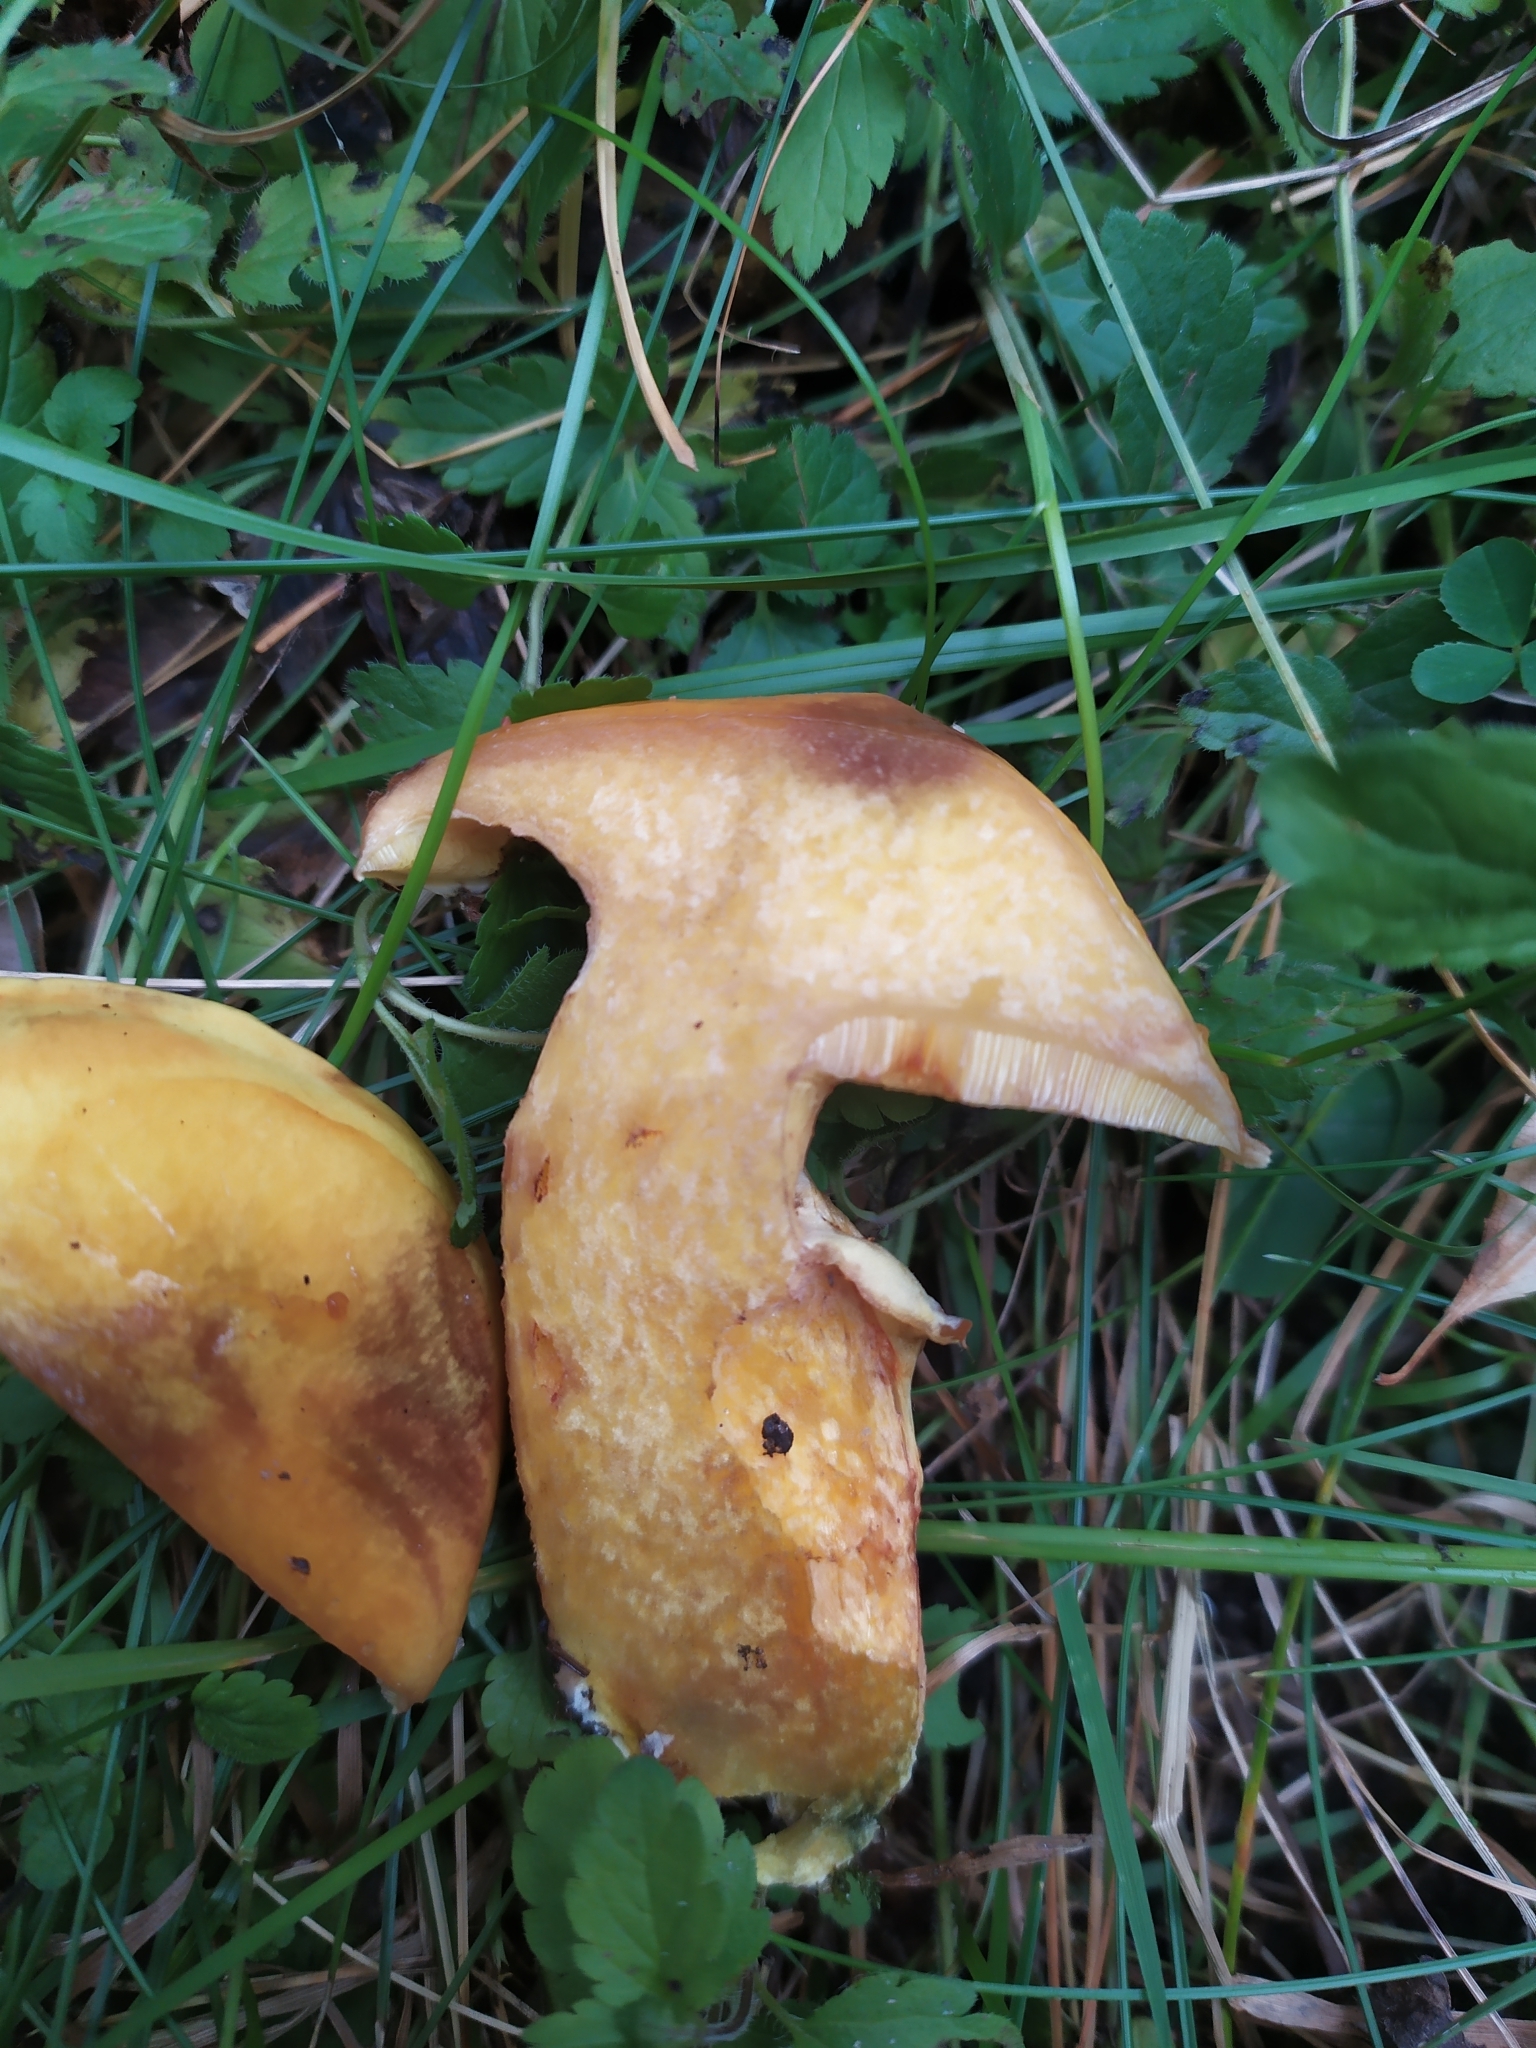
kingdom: Fungi
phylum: Basidiomycota
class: Agaricomycetes
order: Boletales
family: Suillaceae
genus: Suillus
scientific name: Suillus grevillei
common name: Larch bolete
